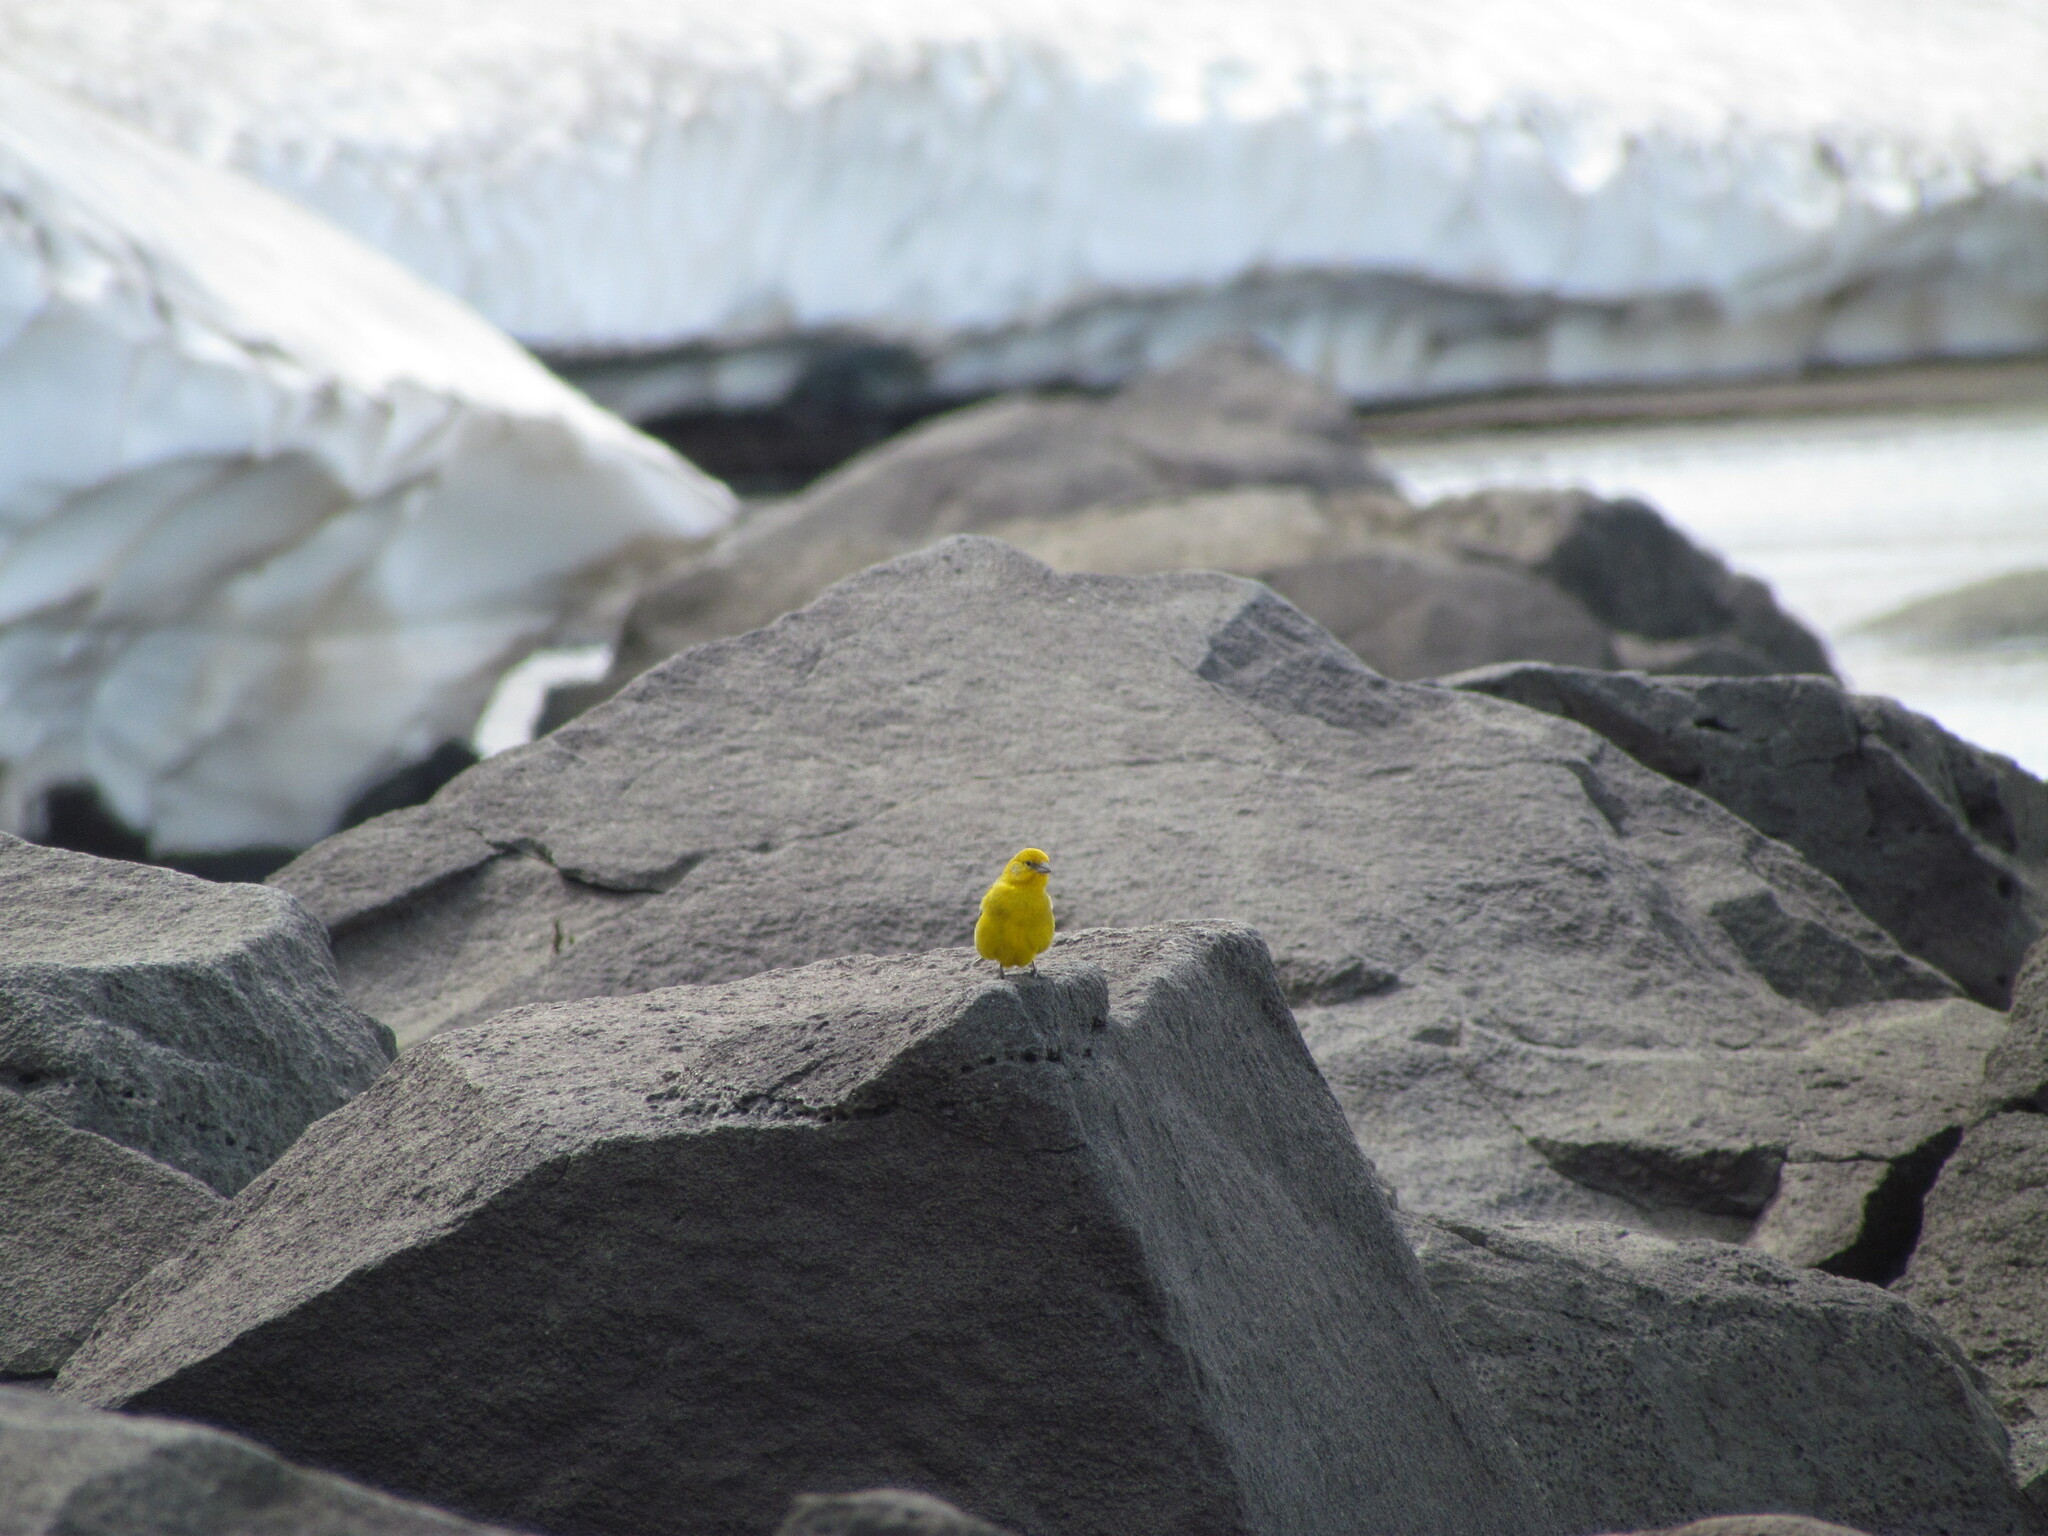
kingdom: Animalia
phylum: Chordata
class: Aves
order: Passeriformes
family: Thraupidae
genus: Sicalis
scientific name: Sicalis auriventris
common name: Greater yellow finch
